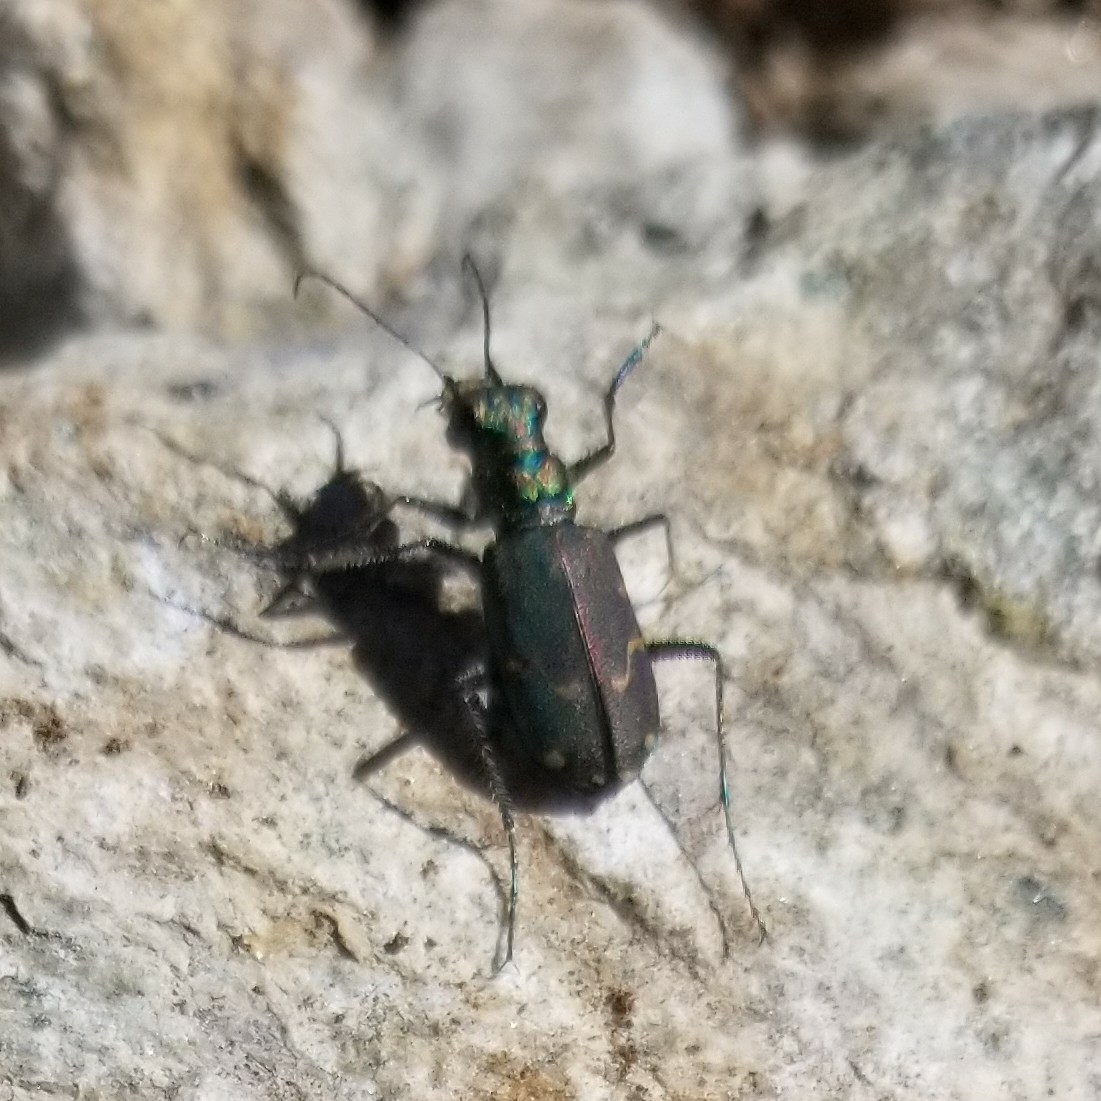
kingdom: Animalia
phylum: Arthropoda
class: Insecta
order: Coleoptera
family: Carabidae
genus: Cicindela
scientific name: Cicindela depressula
